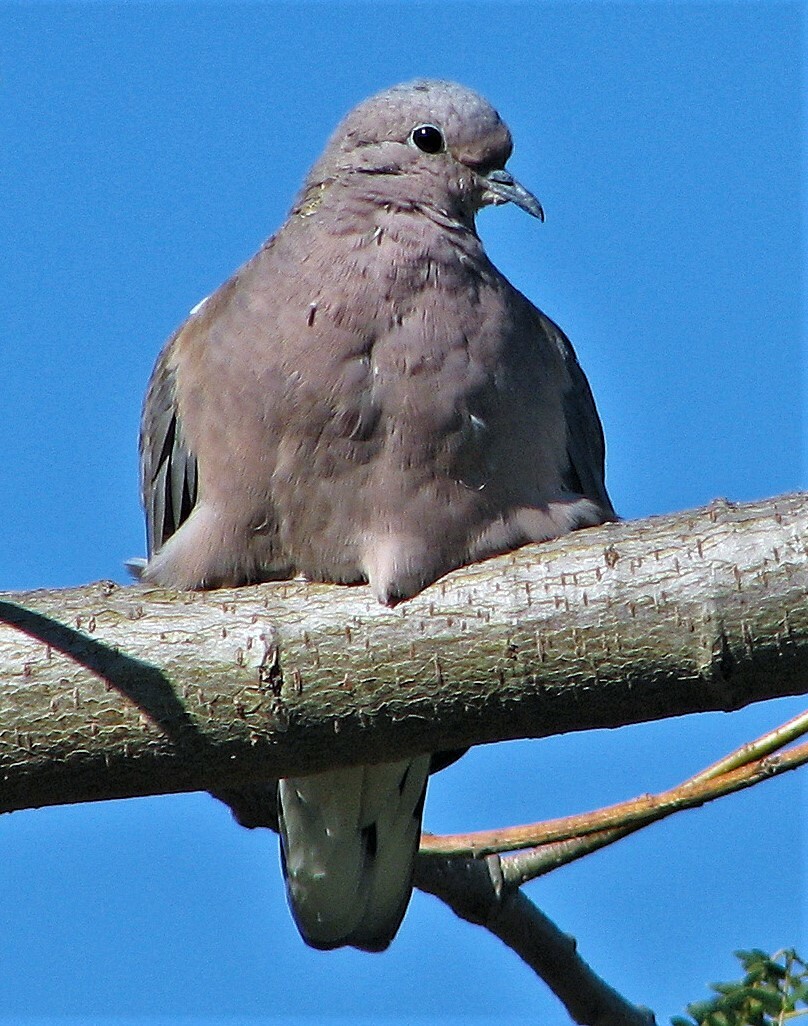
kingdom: Animalia
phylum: Chordata
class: Aves
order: Columbiformes
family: Columbidae
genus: Zenaida
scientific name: Zenaida auriculata
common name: Eared dove
